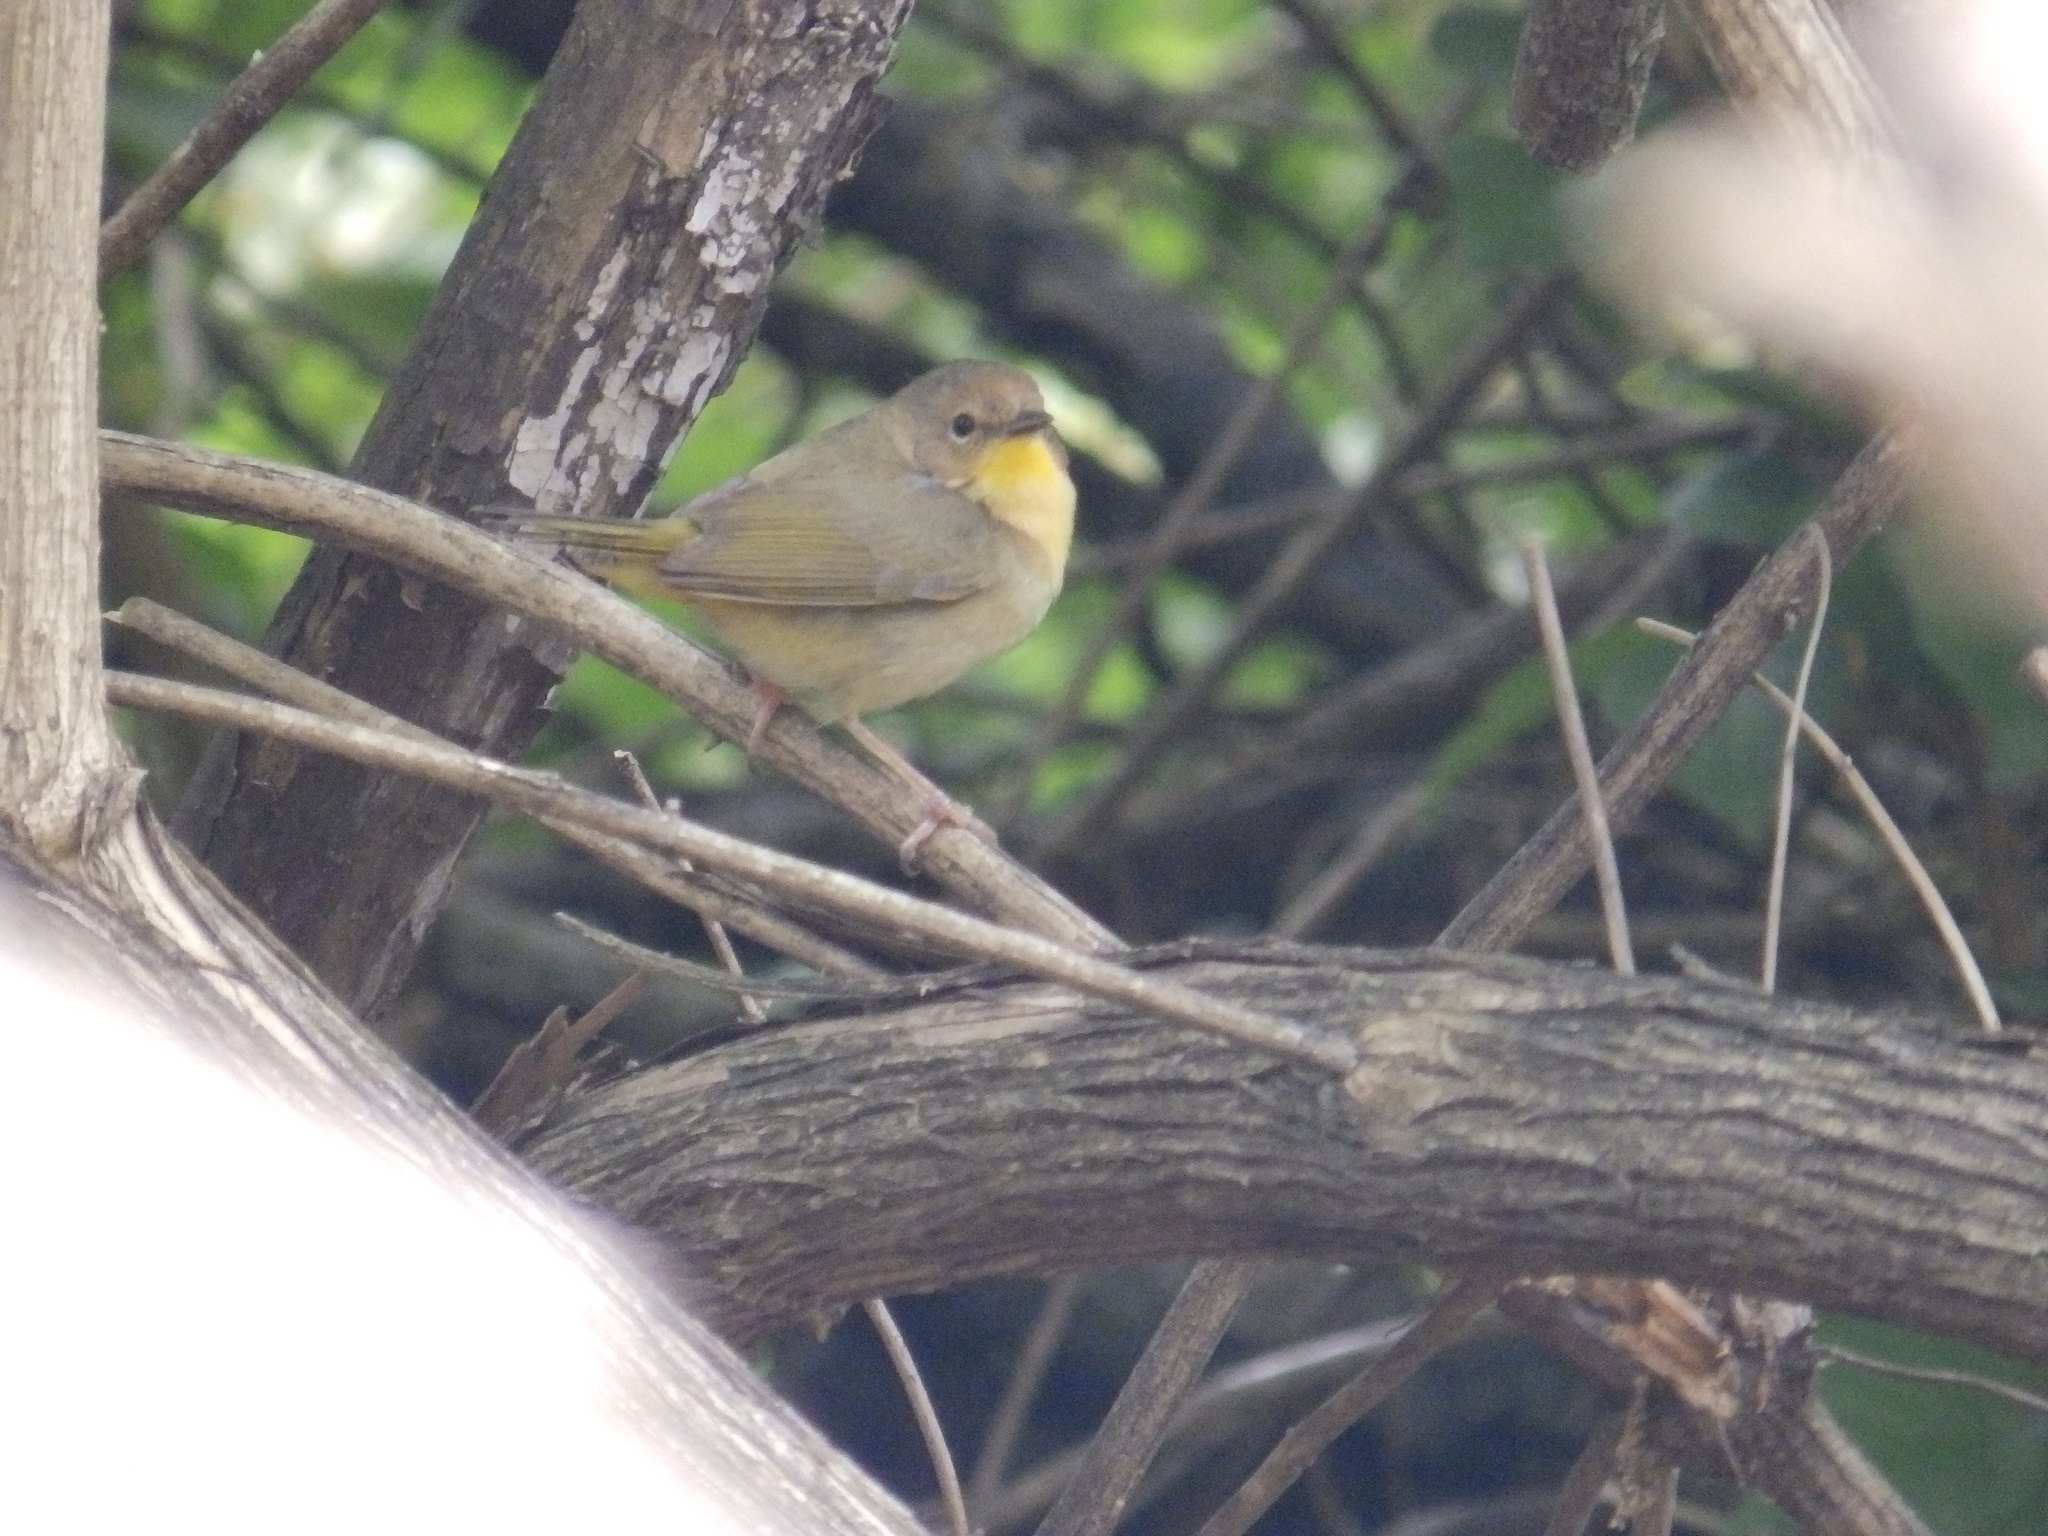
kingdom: Animalia
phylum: Chordata
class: Aves
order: Passeriformes
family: Parulidae
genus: Geothlypis
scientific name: Geothlypis trichas
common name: Common yellowthroat
